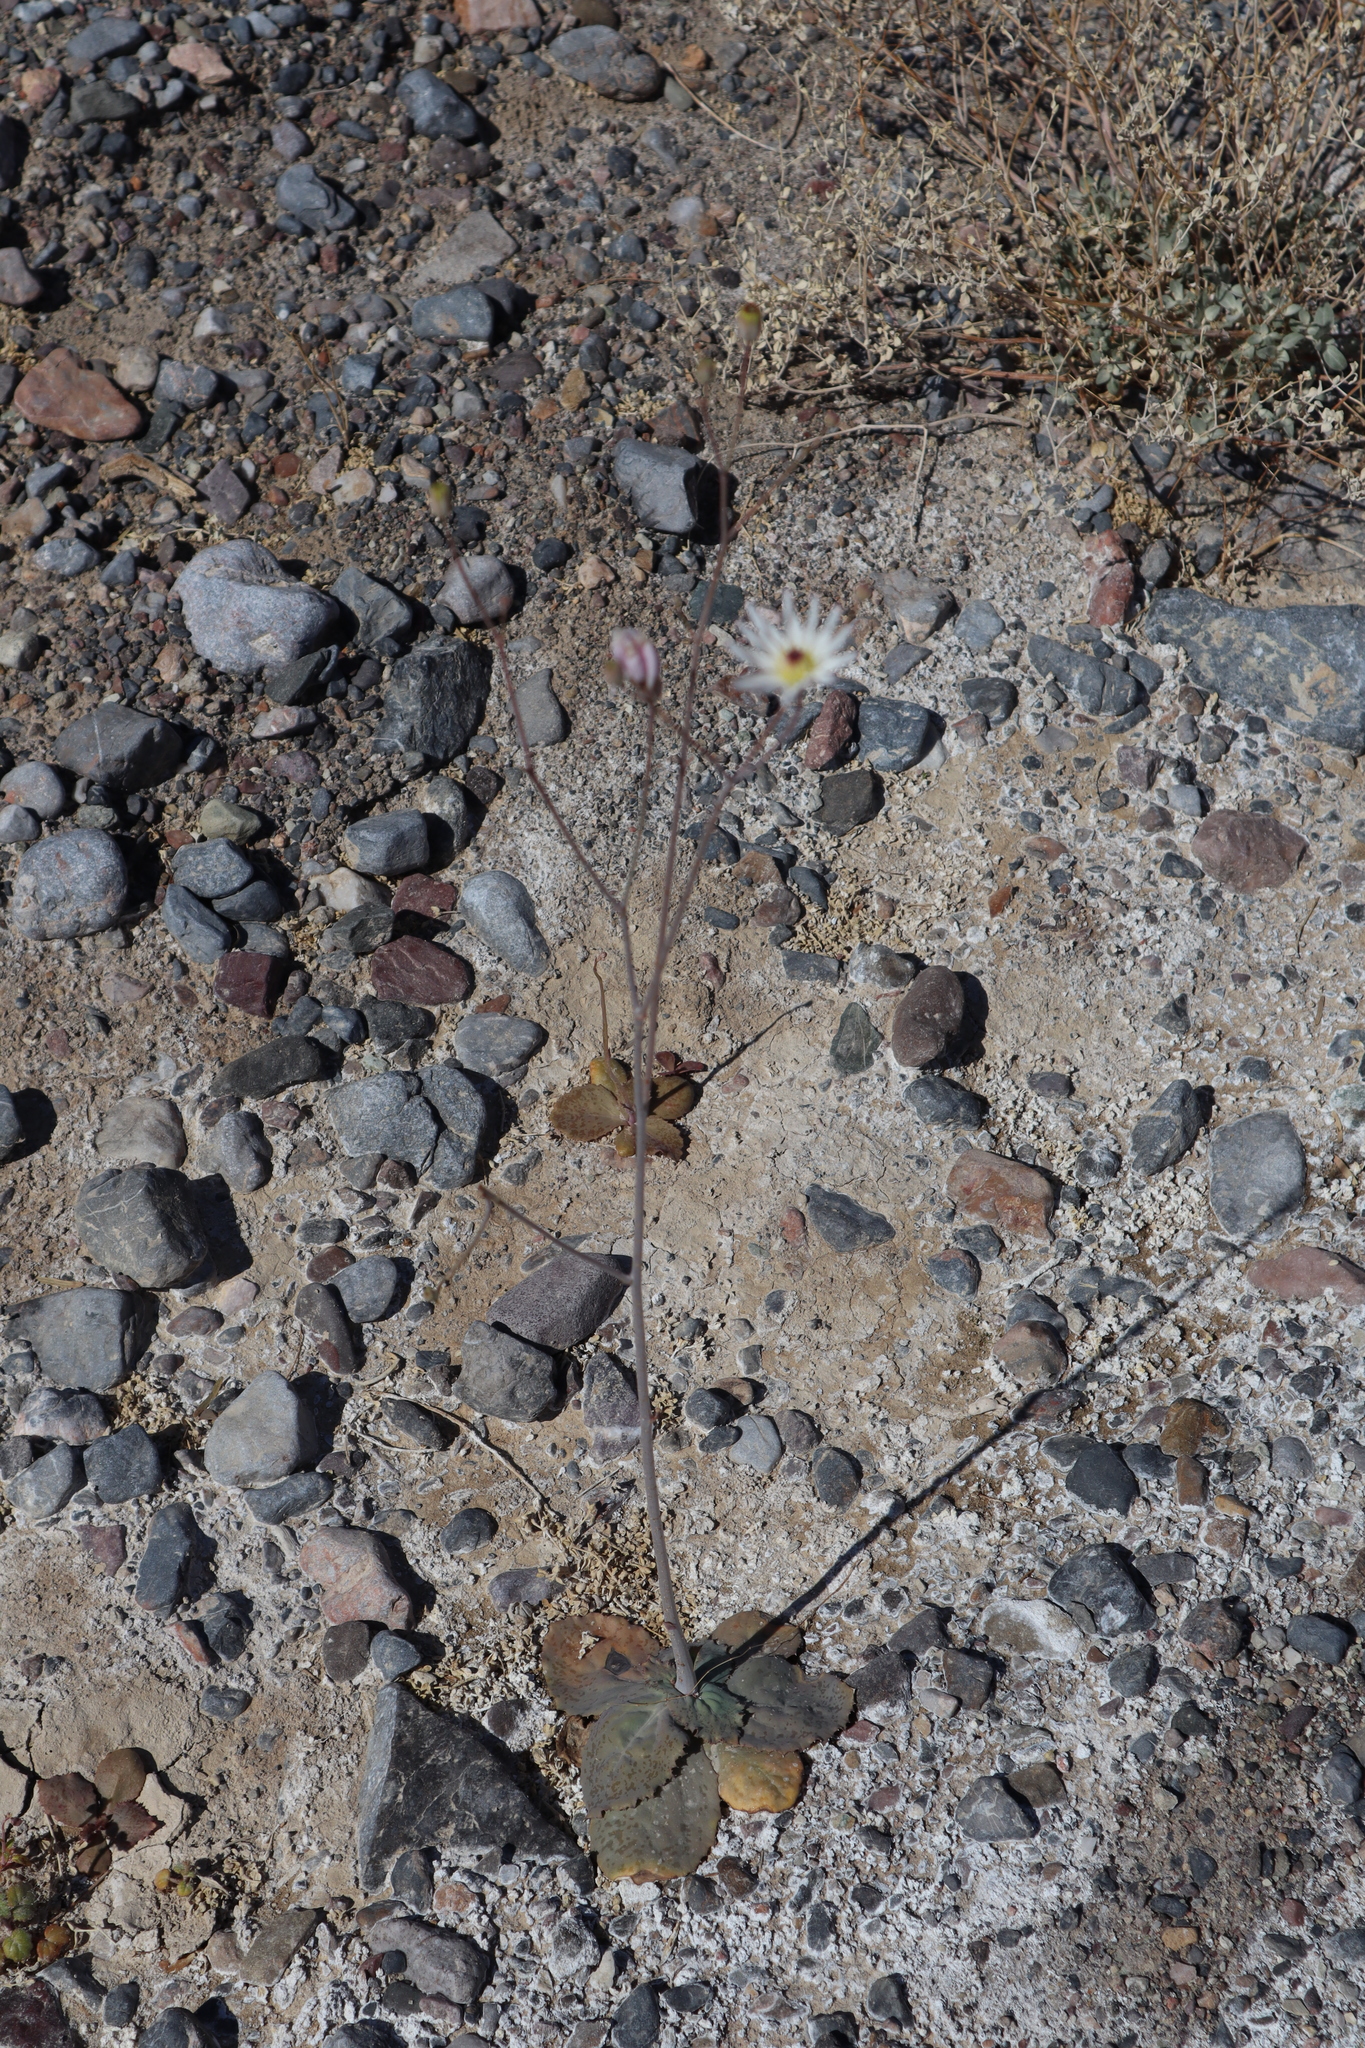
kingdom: Plantae
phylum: Tracheophyta
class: Magnoliopsida
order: Asterales
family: Asteraceae
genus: Atrichoseris
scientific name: Atrichoseris platyphylla
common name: Tobaccoweed
